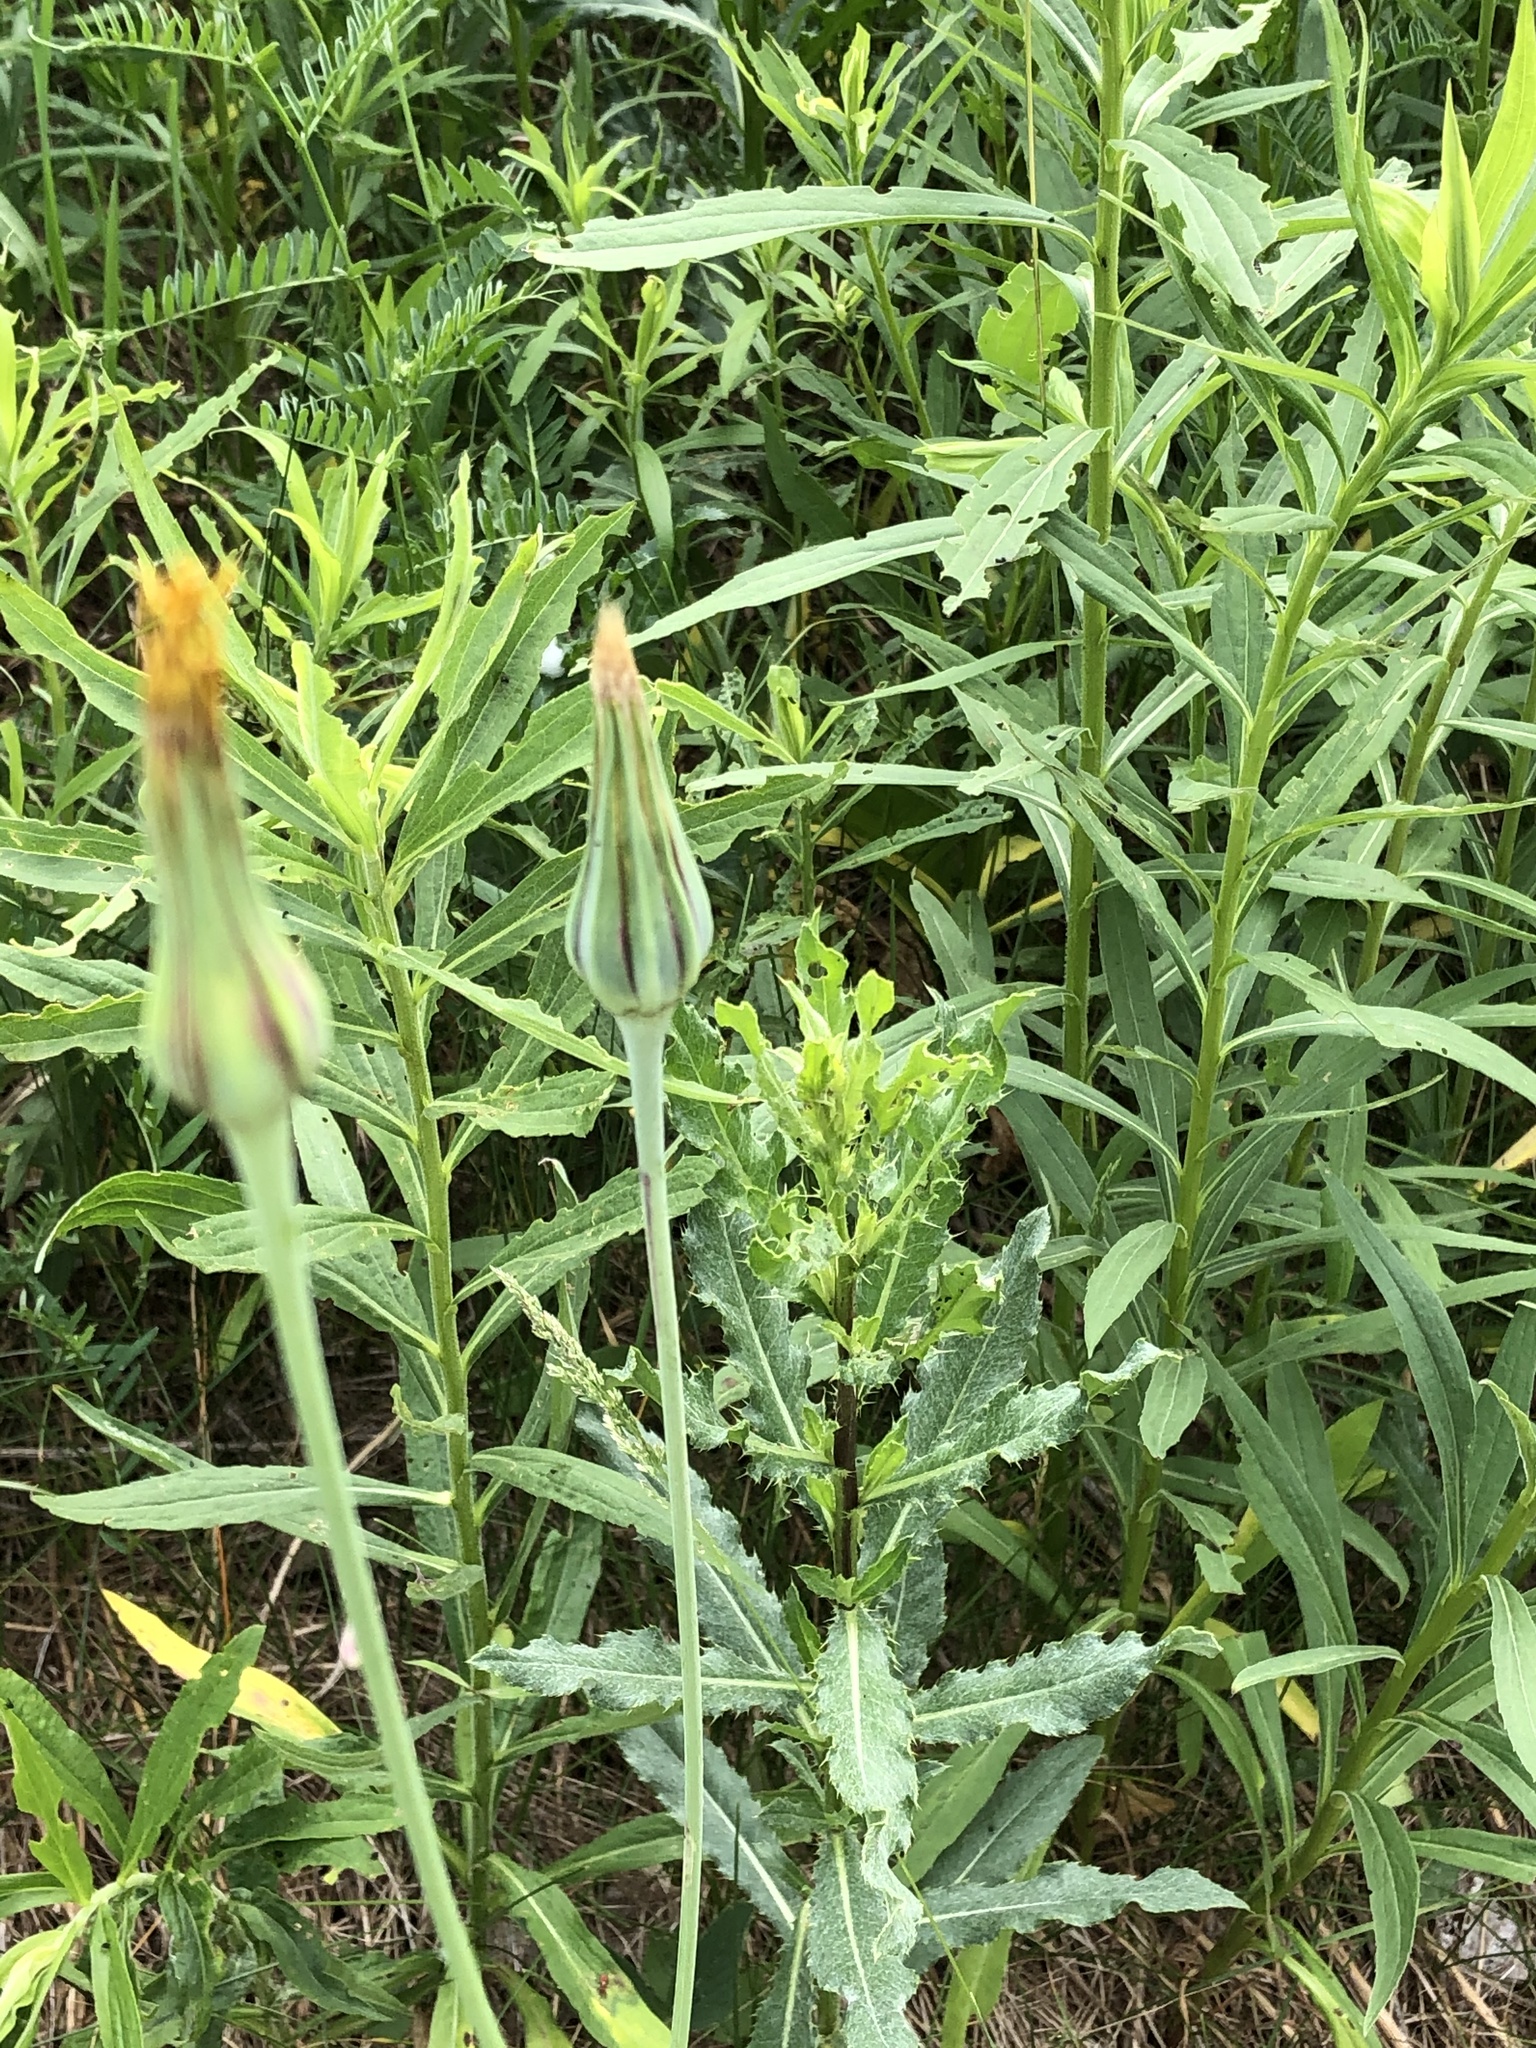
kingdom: Plantae
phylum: Tracheophyta
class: Magnoliopsida
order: Asterales
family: Asteraceae
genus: Tragopogon
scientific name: Tragopogon pratensis
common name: Goat's-beard
